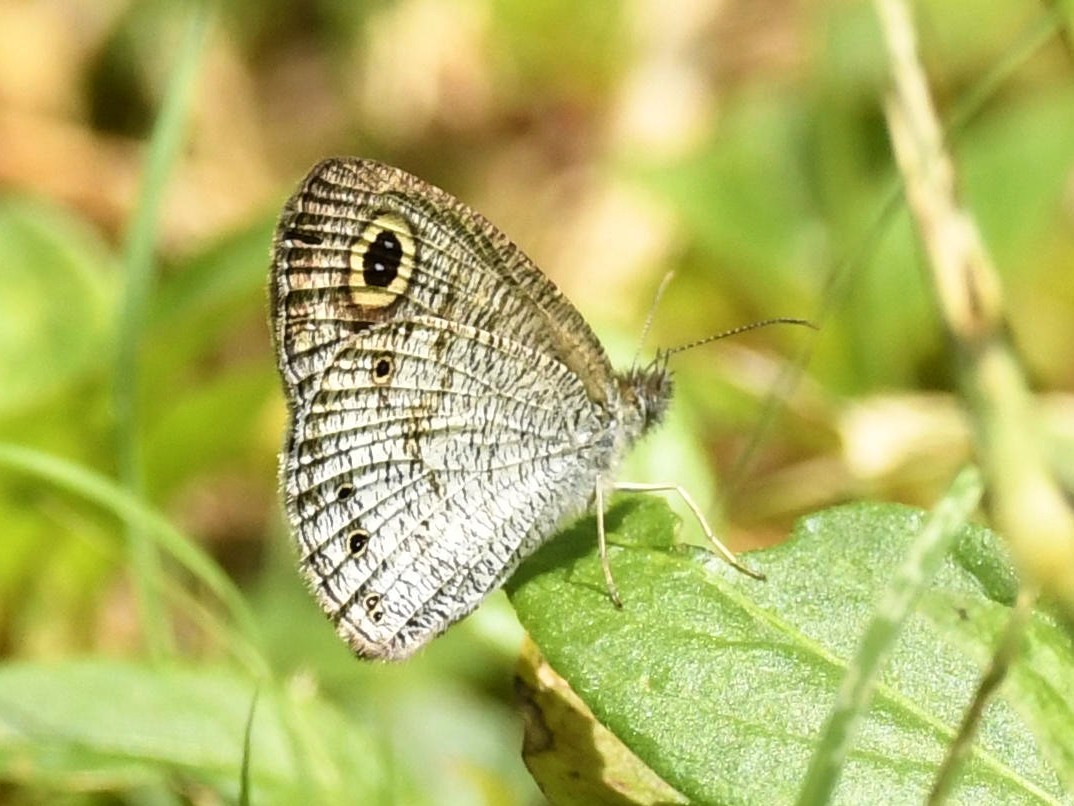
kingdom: Animalia
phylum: Arthropoda
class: Insecta
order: Lepidoptera
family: Nymphalidae
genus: Ypthima
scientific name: Ypthima huebneri
